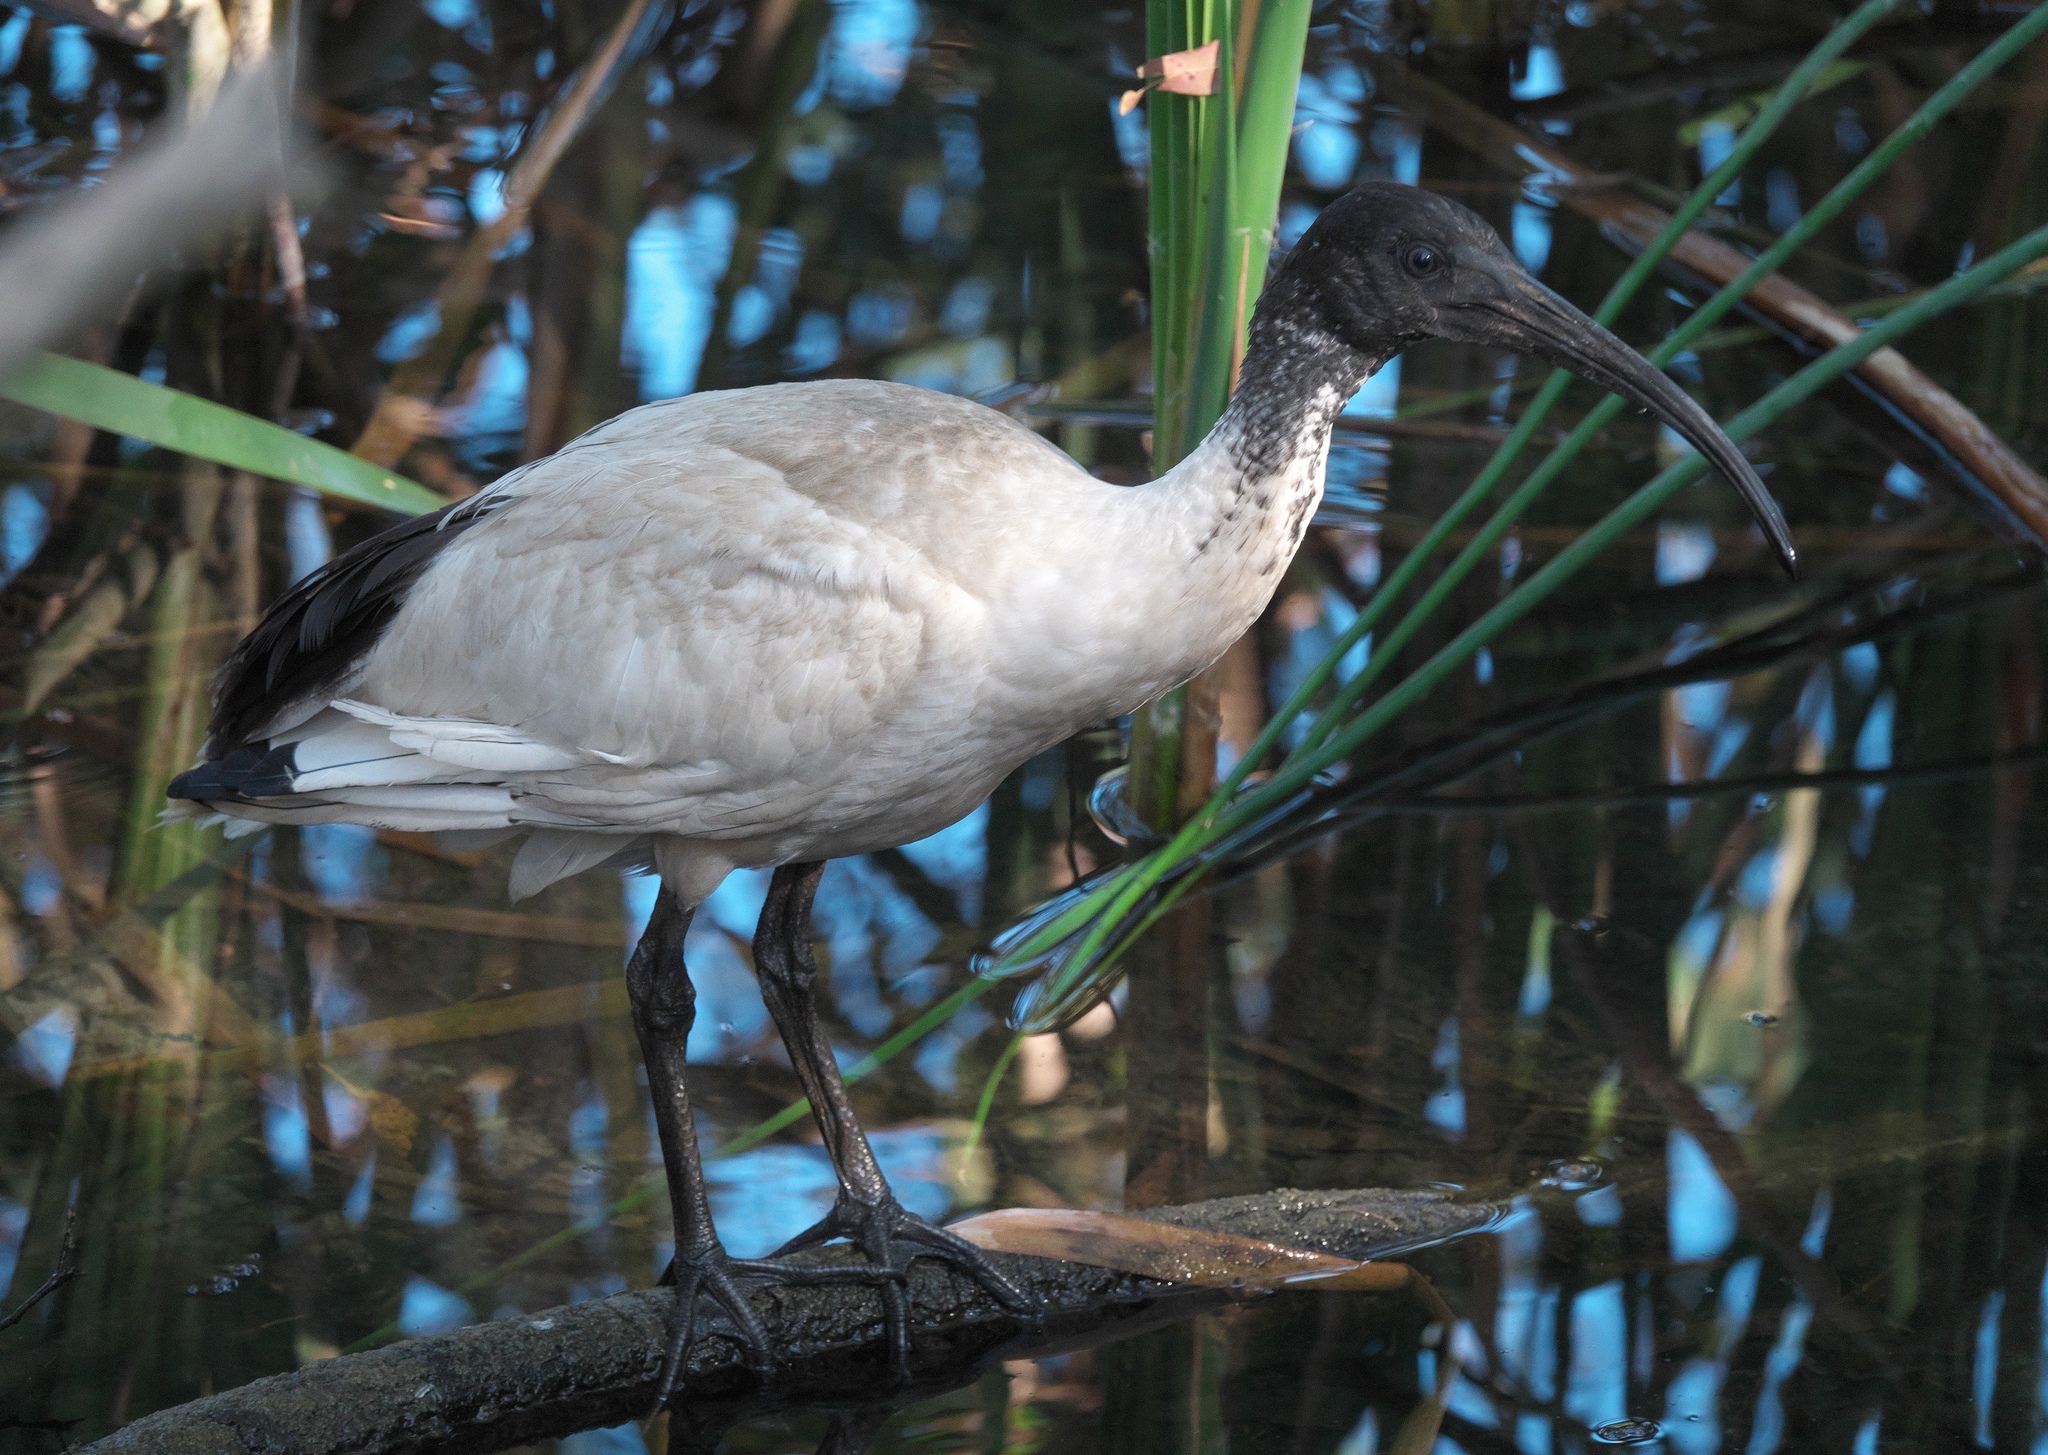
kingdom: Animalia
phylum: Chordata
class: Aves
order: Pelecaniformes
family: Threskiornithidae
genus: Threskiornis
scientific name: Threskiornis molucca
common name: Australian white ibis
